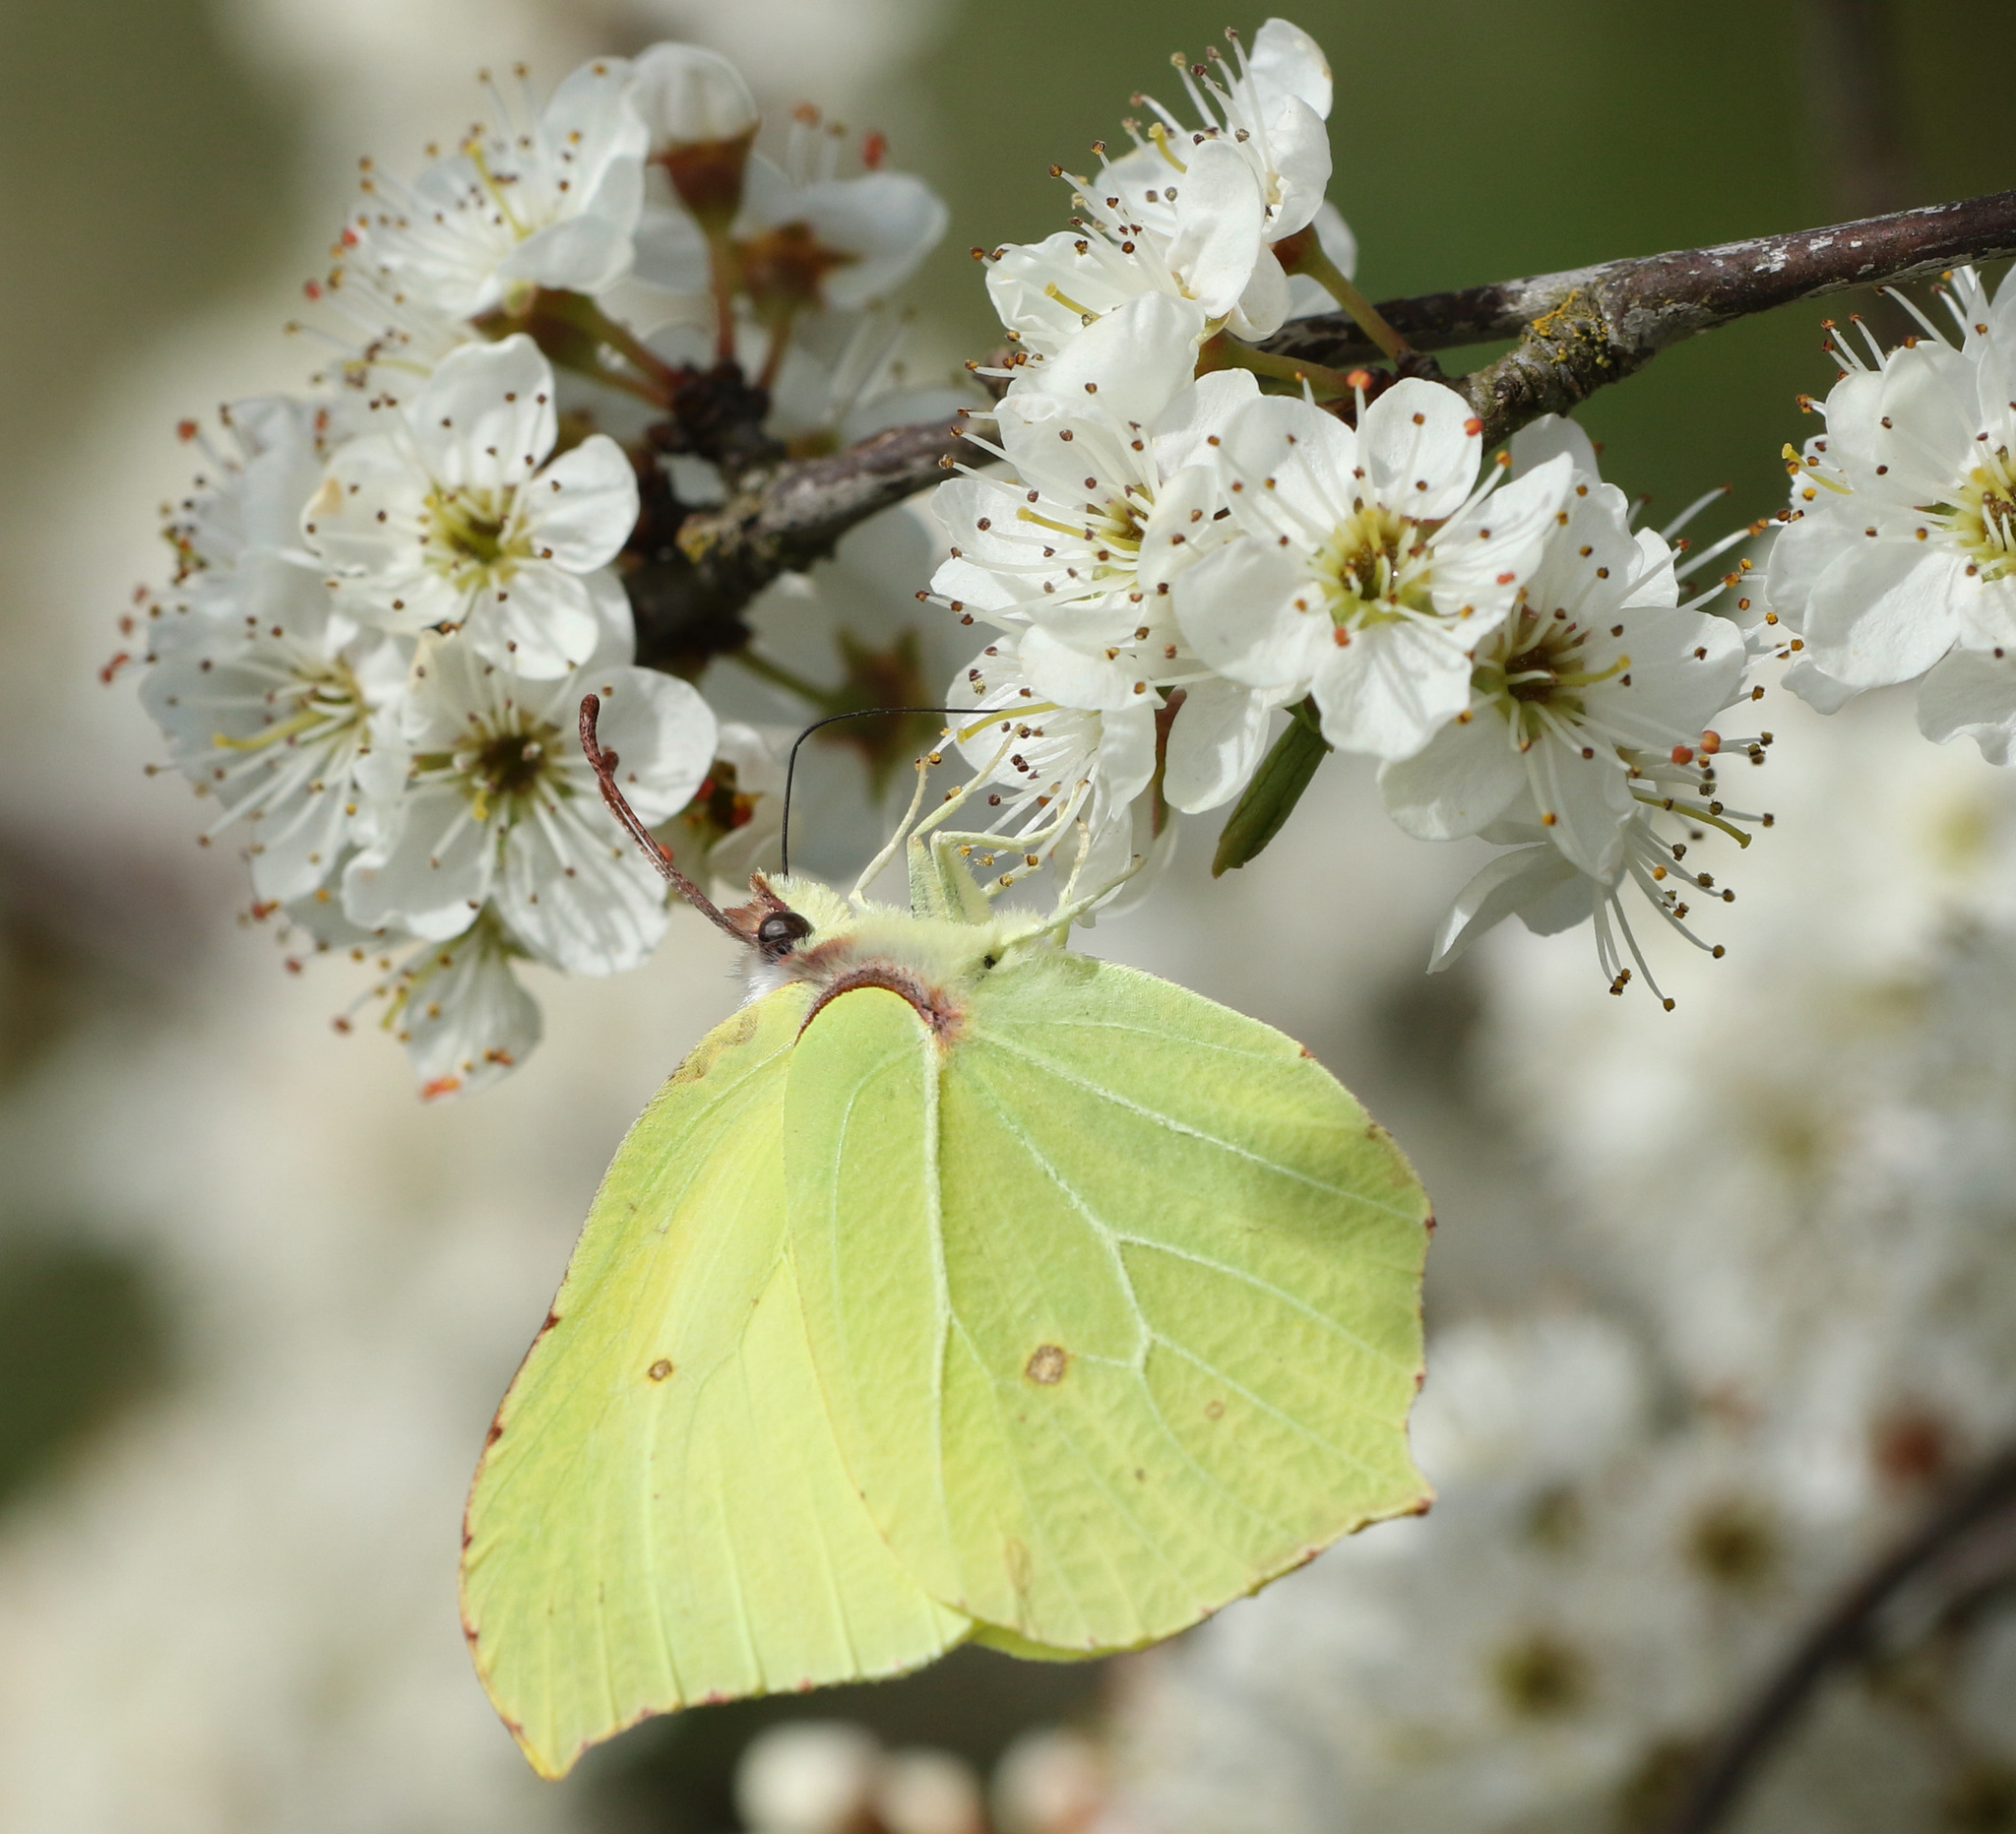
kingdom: Animalia
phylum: Arthropoda
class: Insecta
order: Lepidoptera
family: Pieridae
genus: Gonepteryx
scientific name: Gonepteryx rhamni
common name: Brimstone
